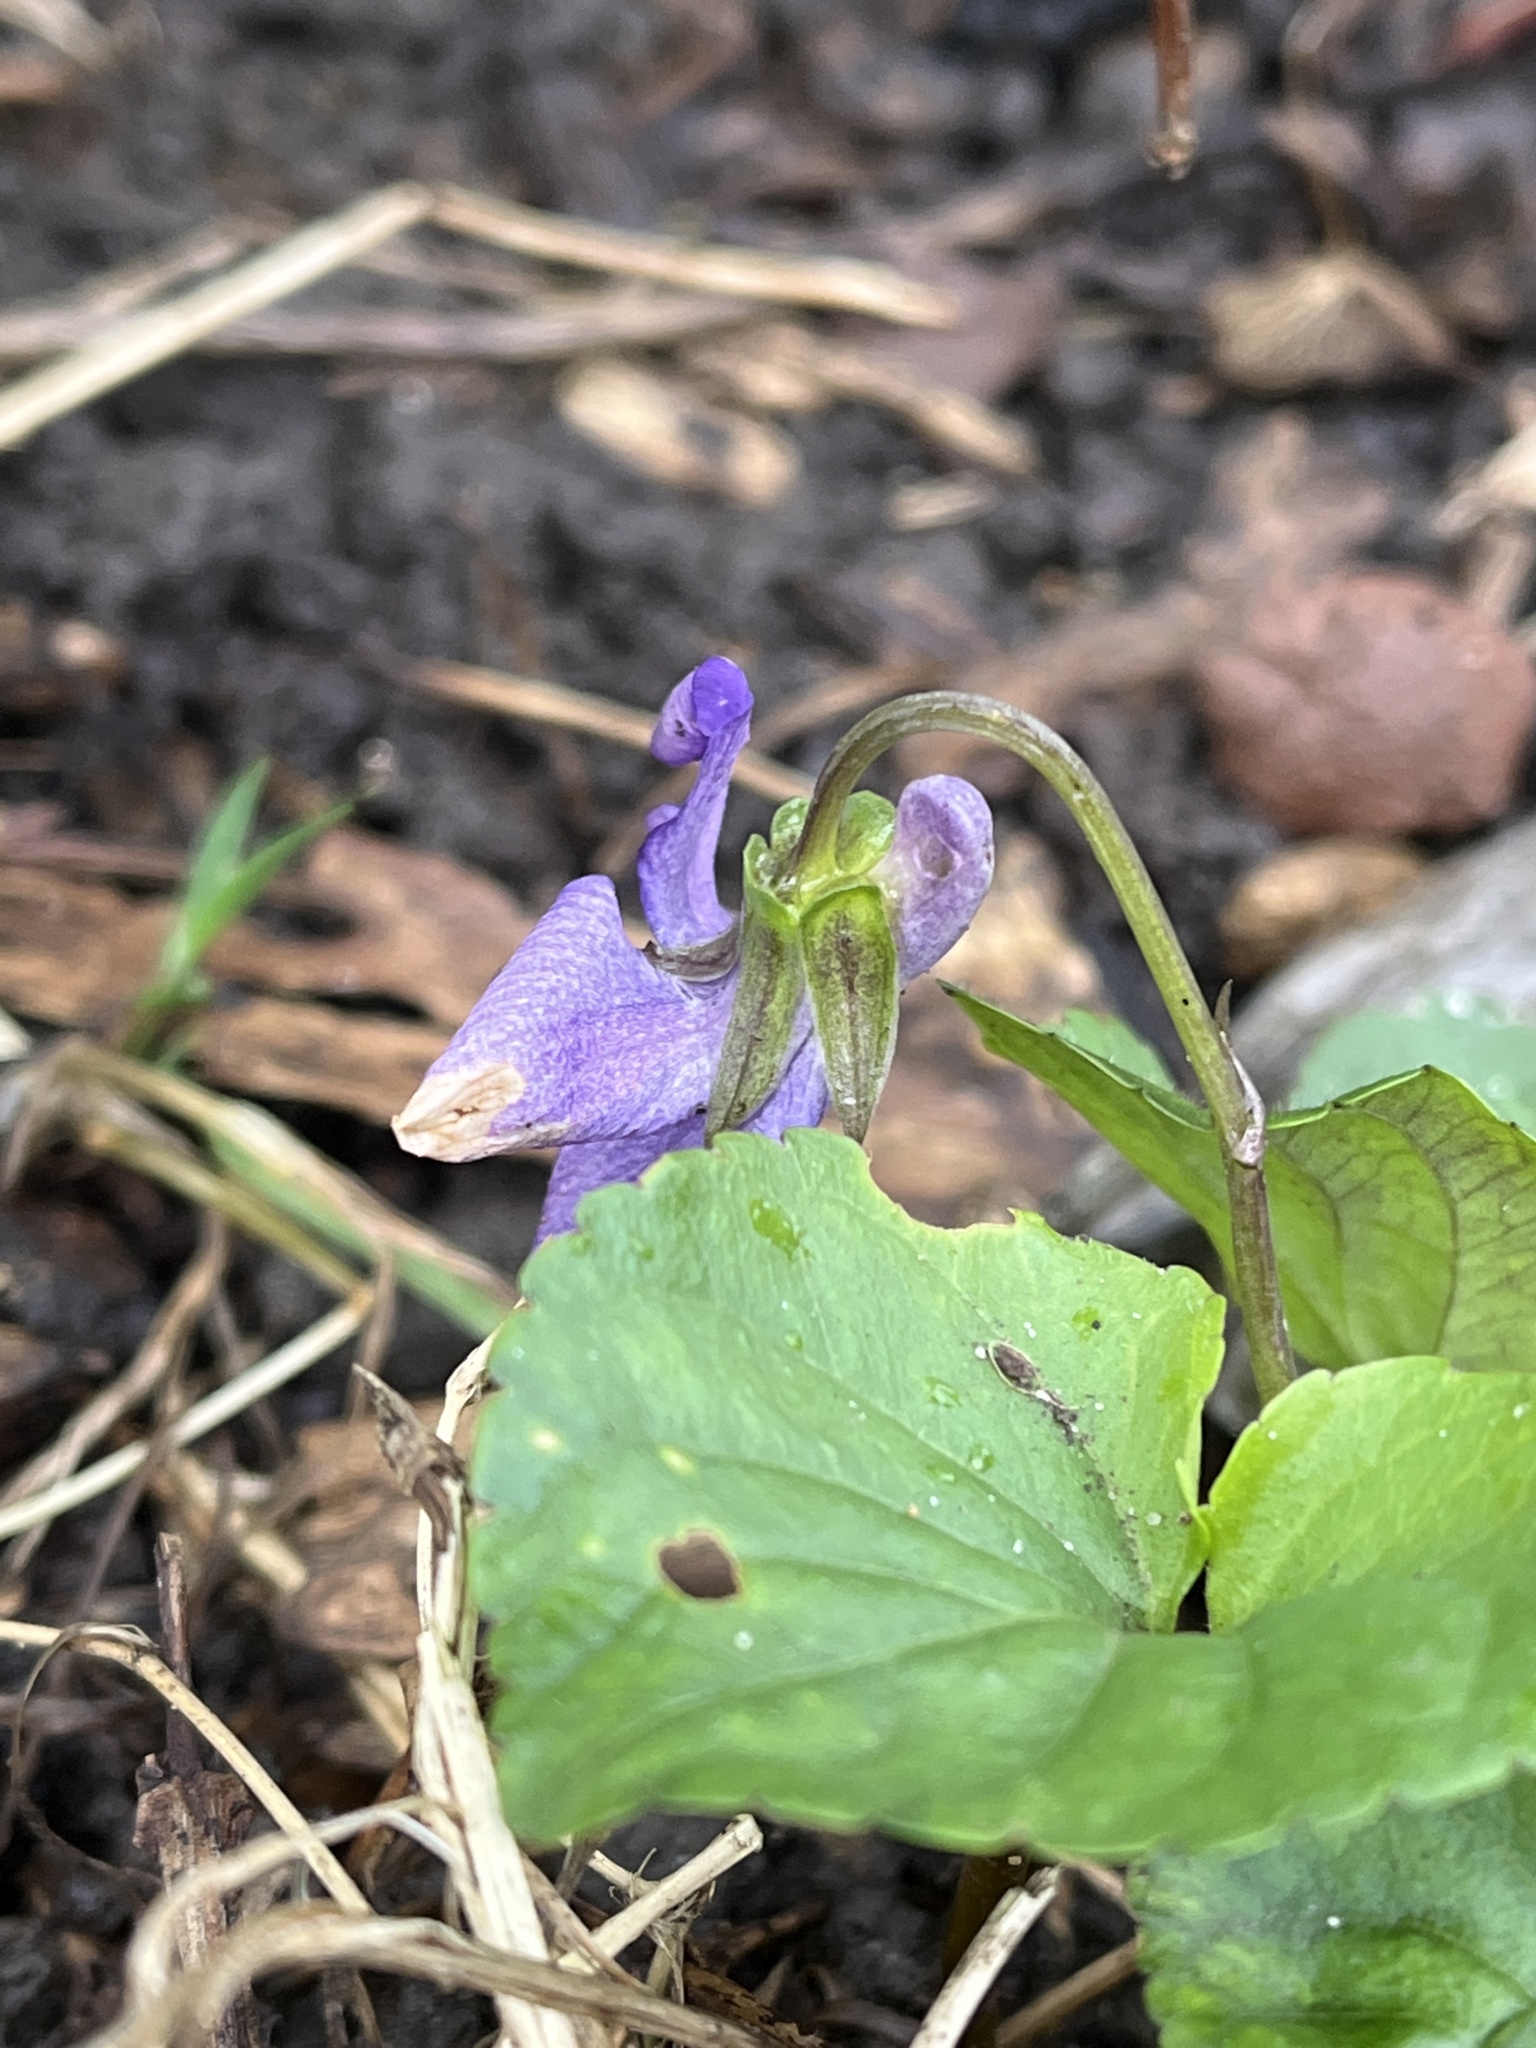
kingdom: Plantae
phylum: Tracheophyta
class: Magnoliopsida
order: Malpighiales
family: Violaceae
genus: Viola
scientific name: Viola reichenbachiana
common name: Early dog-violet
